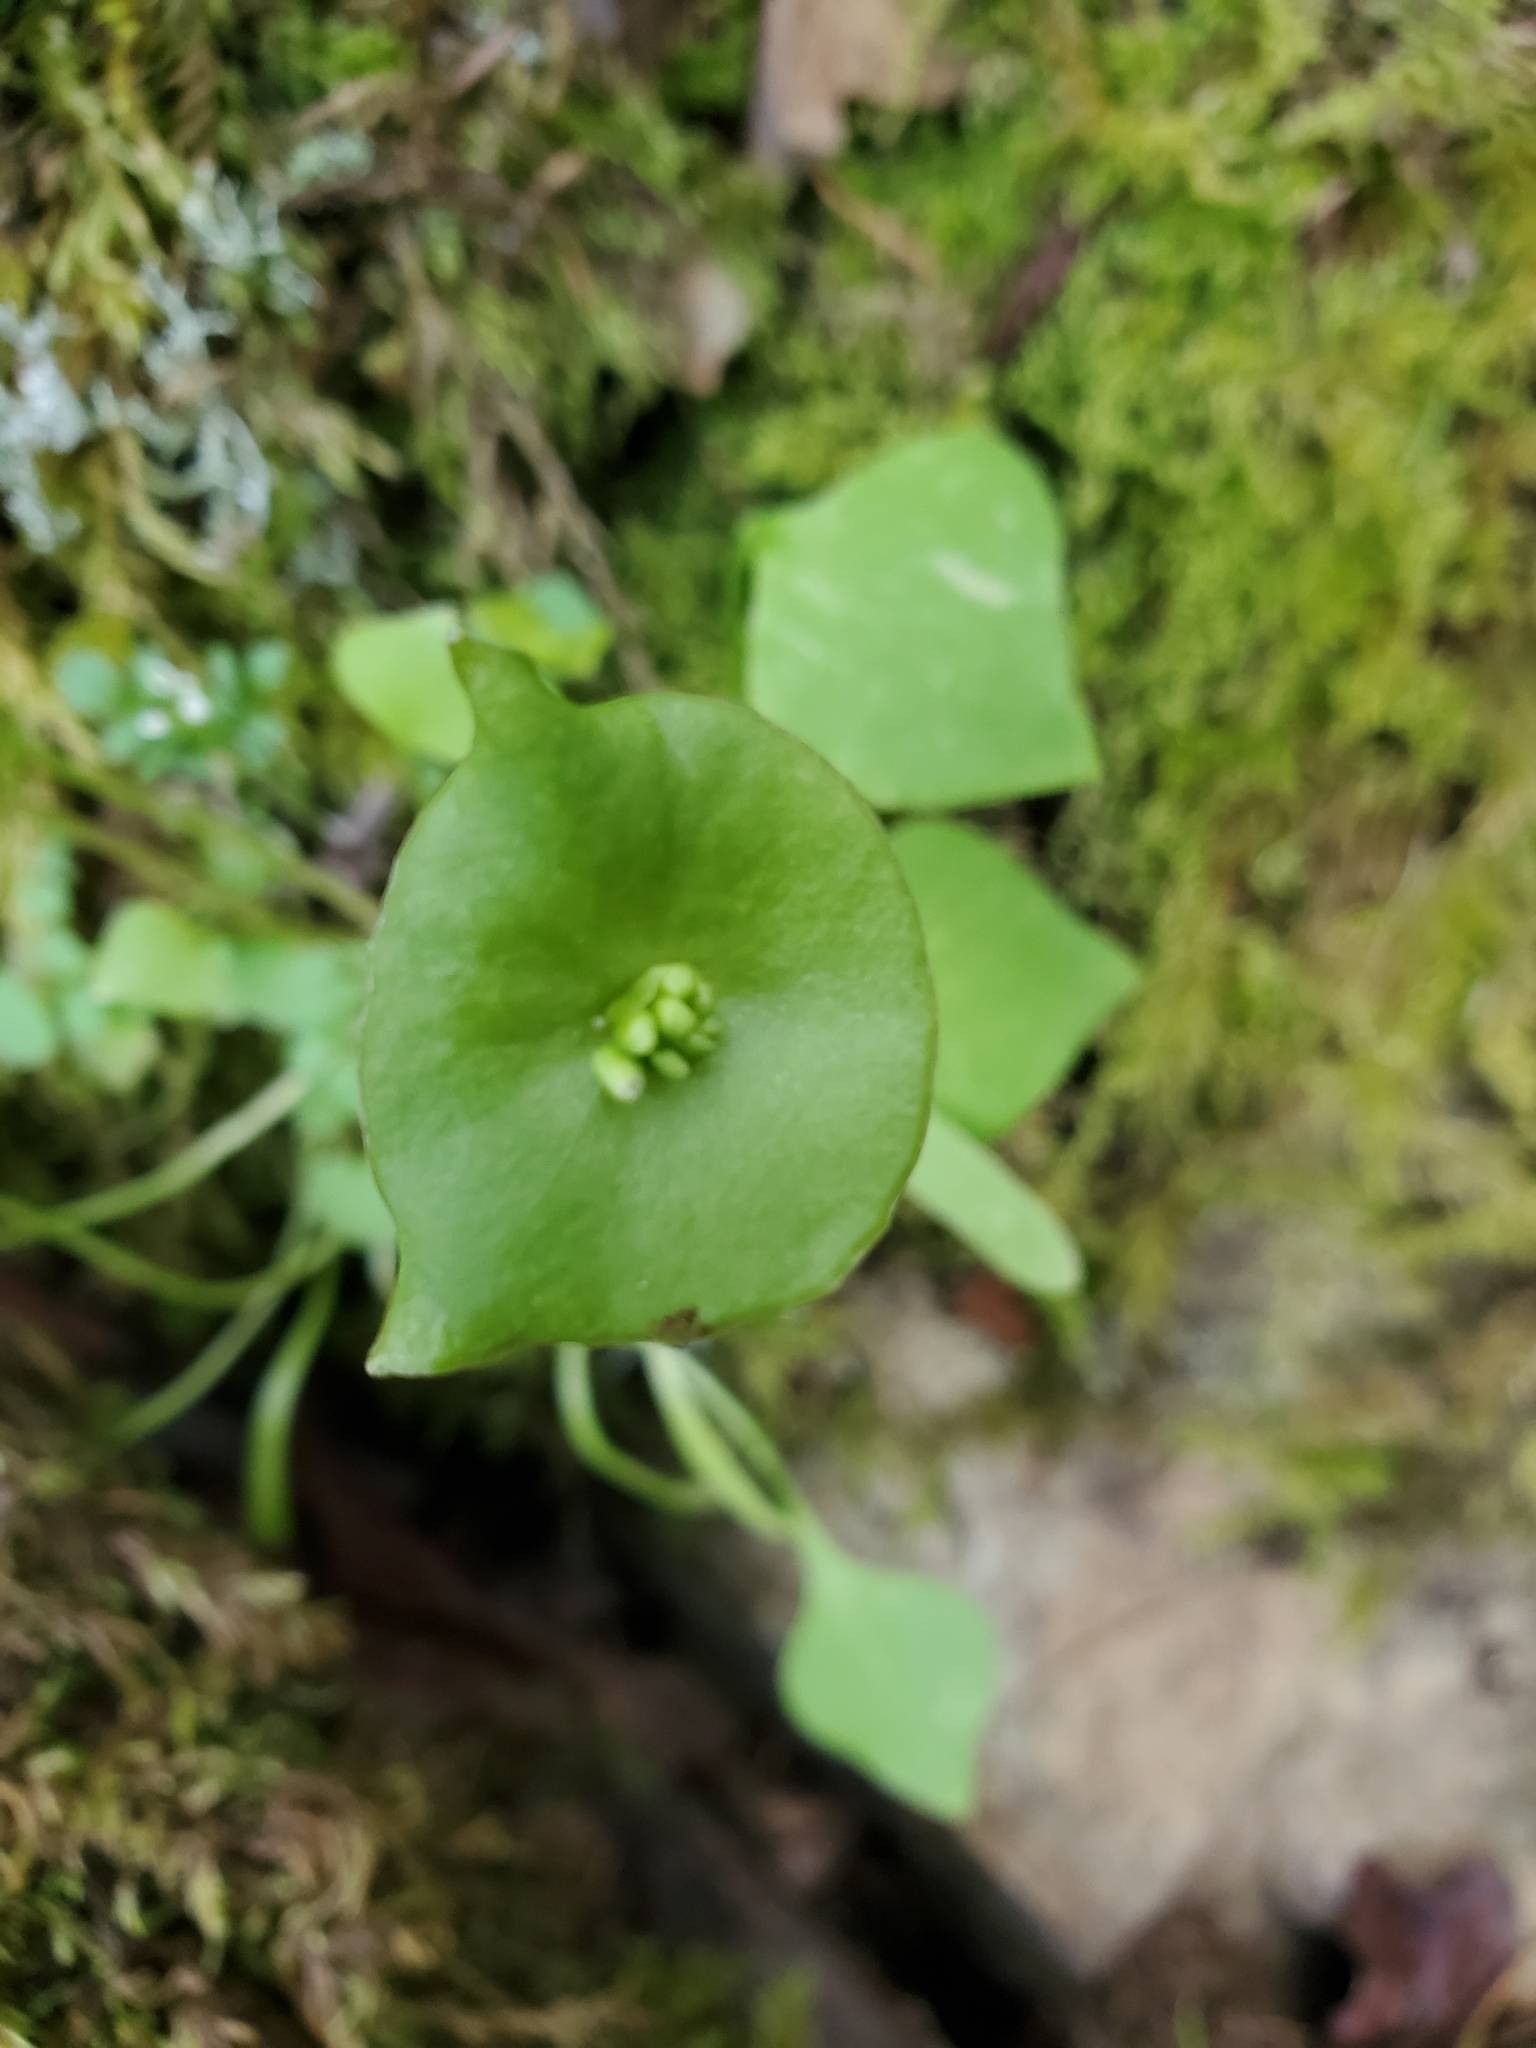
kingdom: Plantae
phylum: Tracheophyta
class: Magnoliopsida
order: Caryophyllales
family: Montiaceae
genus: Claytonia
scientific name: Claytonia perfoliata
